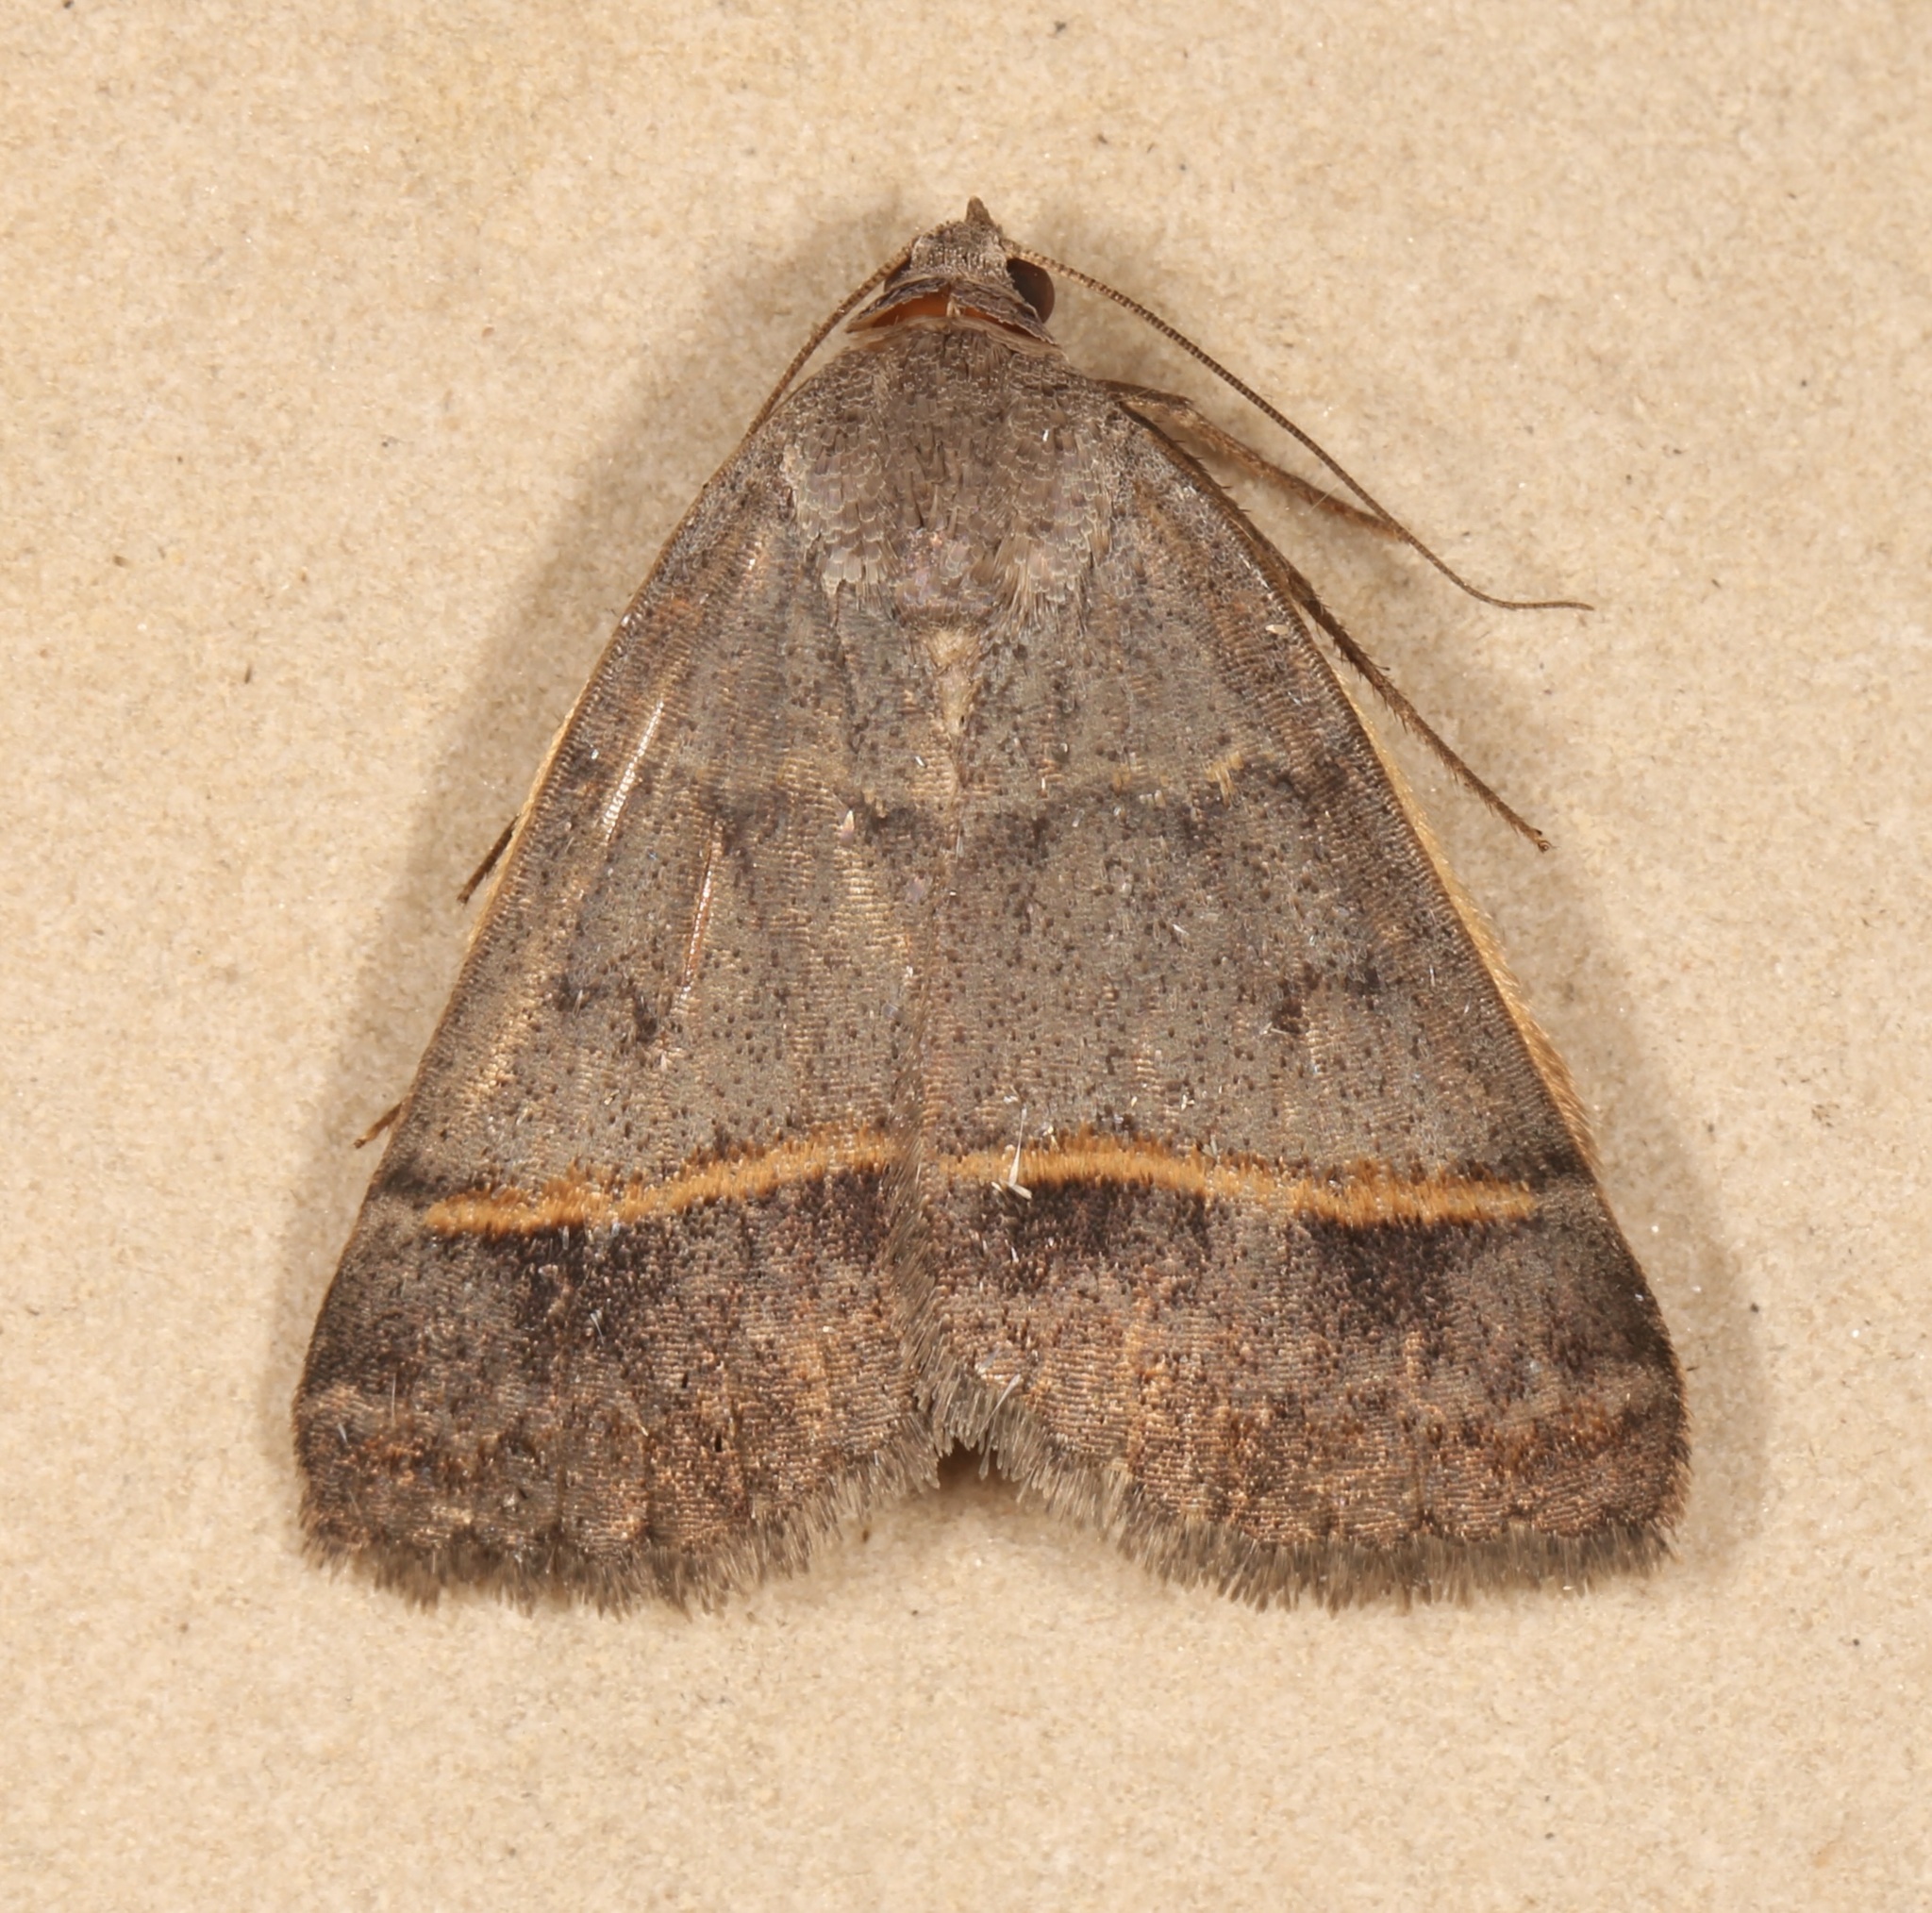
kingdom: Animalia
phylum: Arthropoda
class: Insecta
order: Lepidoptera
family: Erebidae
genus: Ptichodis
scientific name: Ptichodis bucetum
